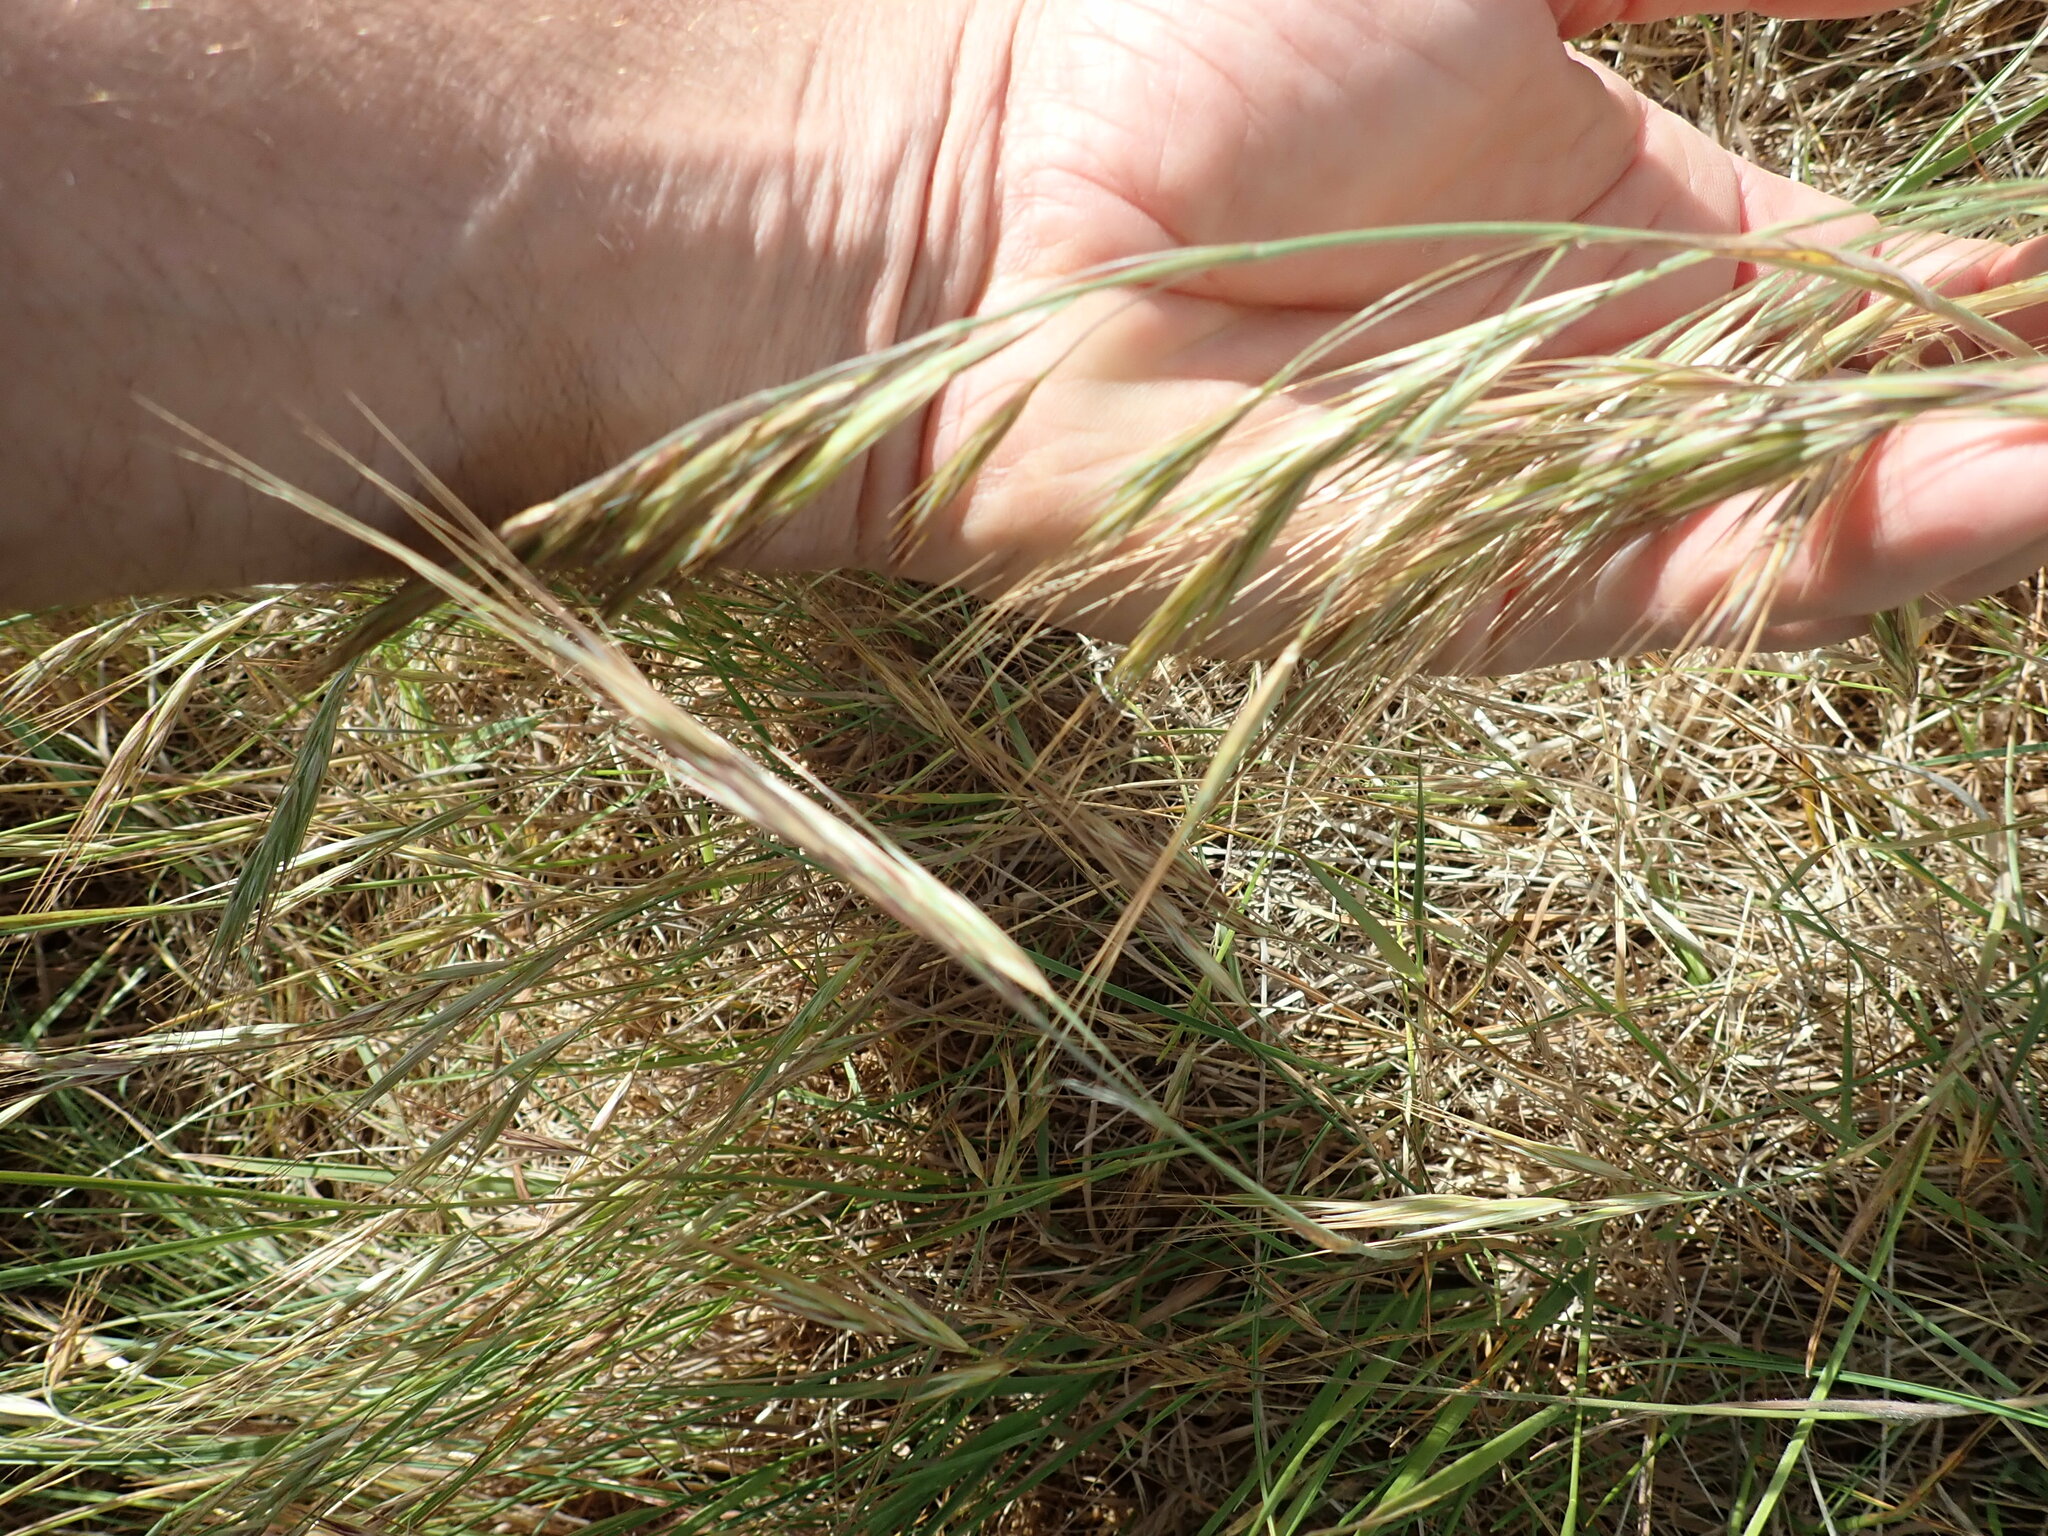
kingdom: Plantae
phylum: Tracheophyta
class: Liliopsida
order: Poales
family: Poaceae
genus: Bromus
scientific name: Bromus diandrus
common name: Ripgut brome
